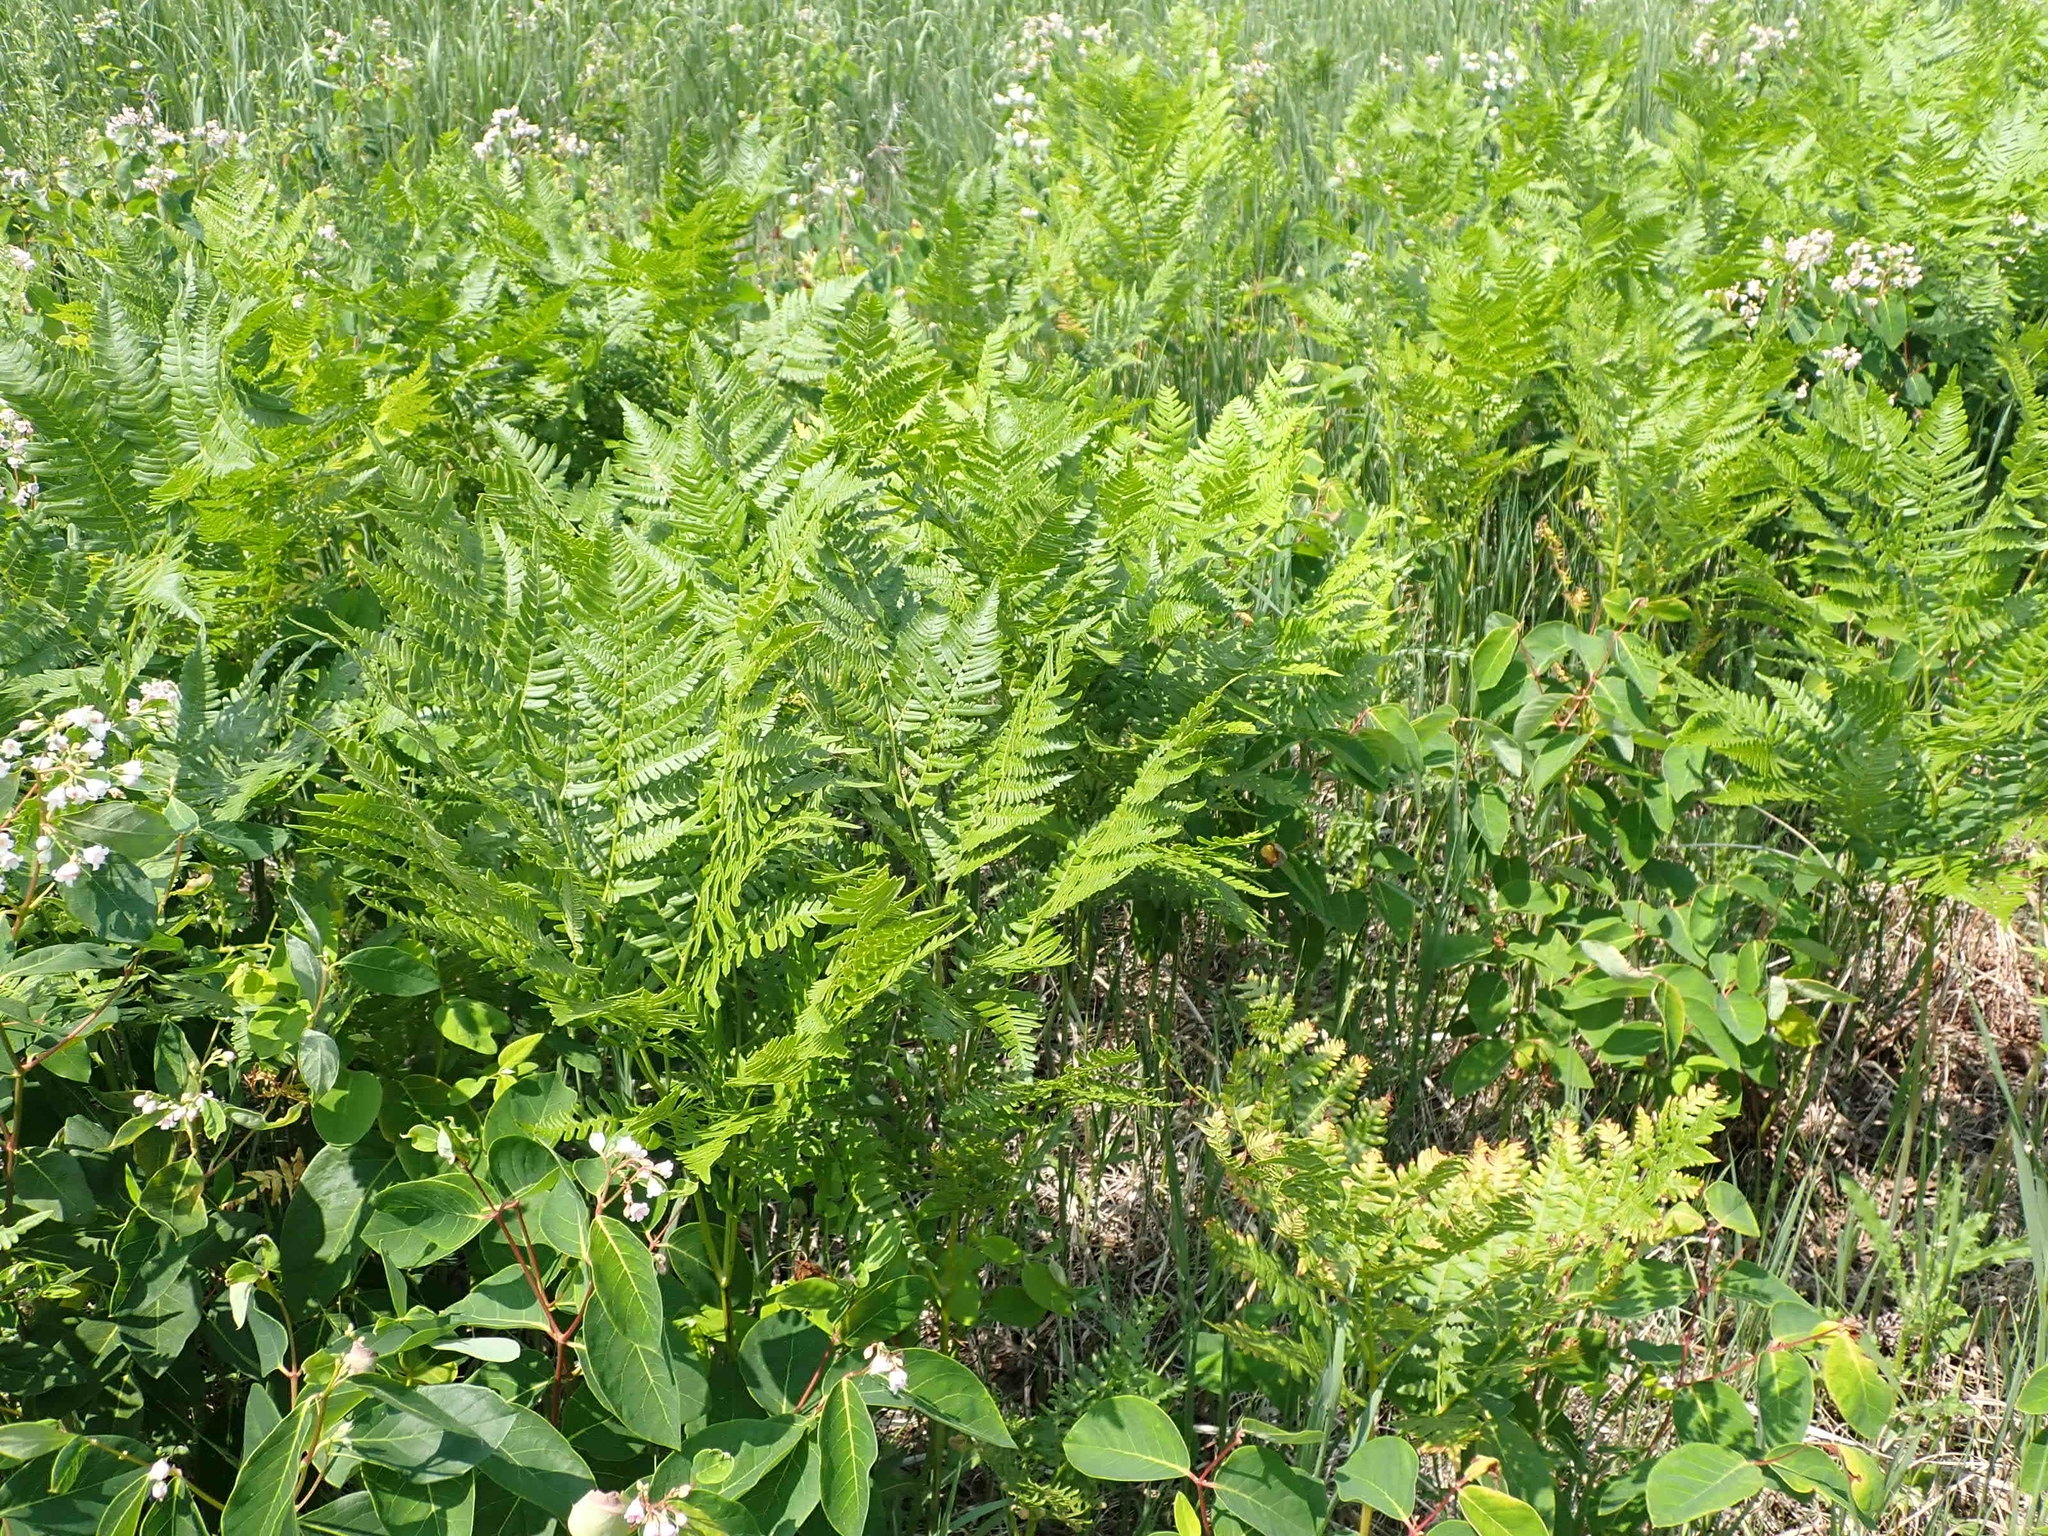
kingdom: Plantae
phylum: Tracheophyta
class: Polypodiopsida
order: Polypodiales
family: Dennstaedtiaceae
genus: Pteridium
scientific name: Pteridium aquilinum
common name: Bracken
